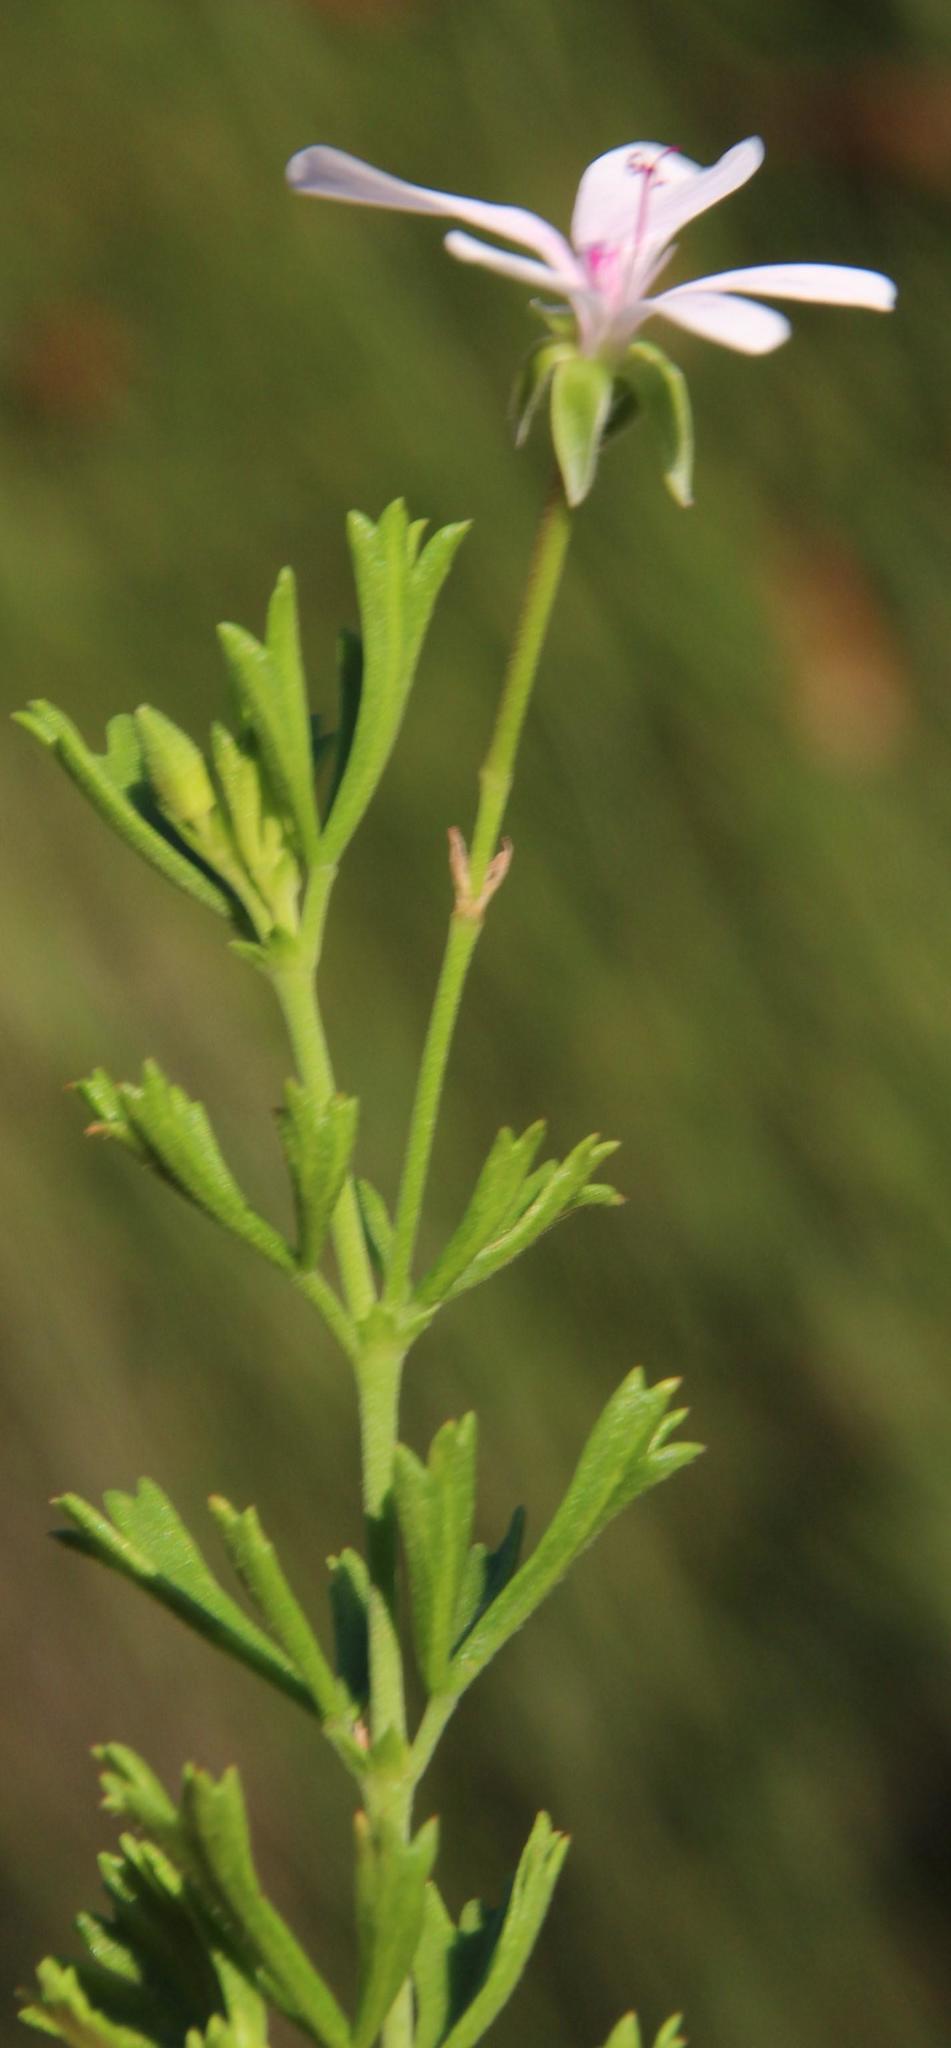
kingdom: Plantae
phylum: Tracheophyta
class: Magnoliopsida
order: Geraniales
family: Geraniaceae
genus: Pelargonium
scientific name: Pelargonium ternatum
